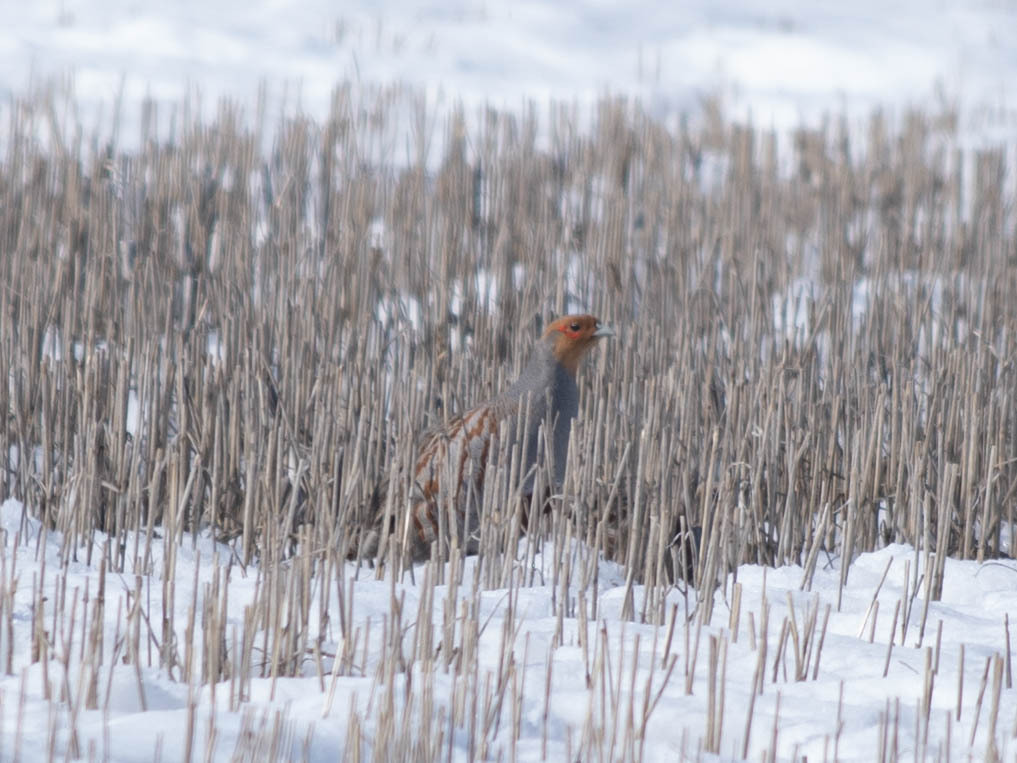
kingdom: Animalia
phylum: Chordata
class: Aves
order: Galliformes
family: Phasianidae
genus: Perdix
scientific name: Perdix perdix
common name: Grey partridge
